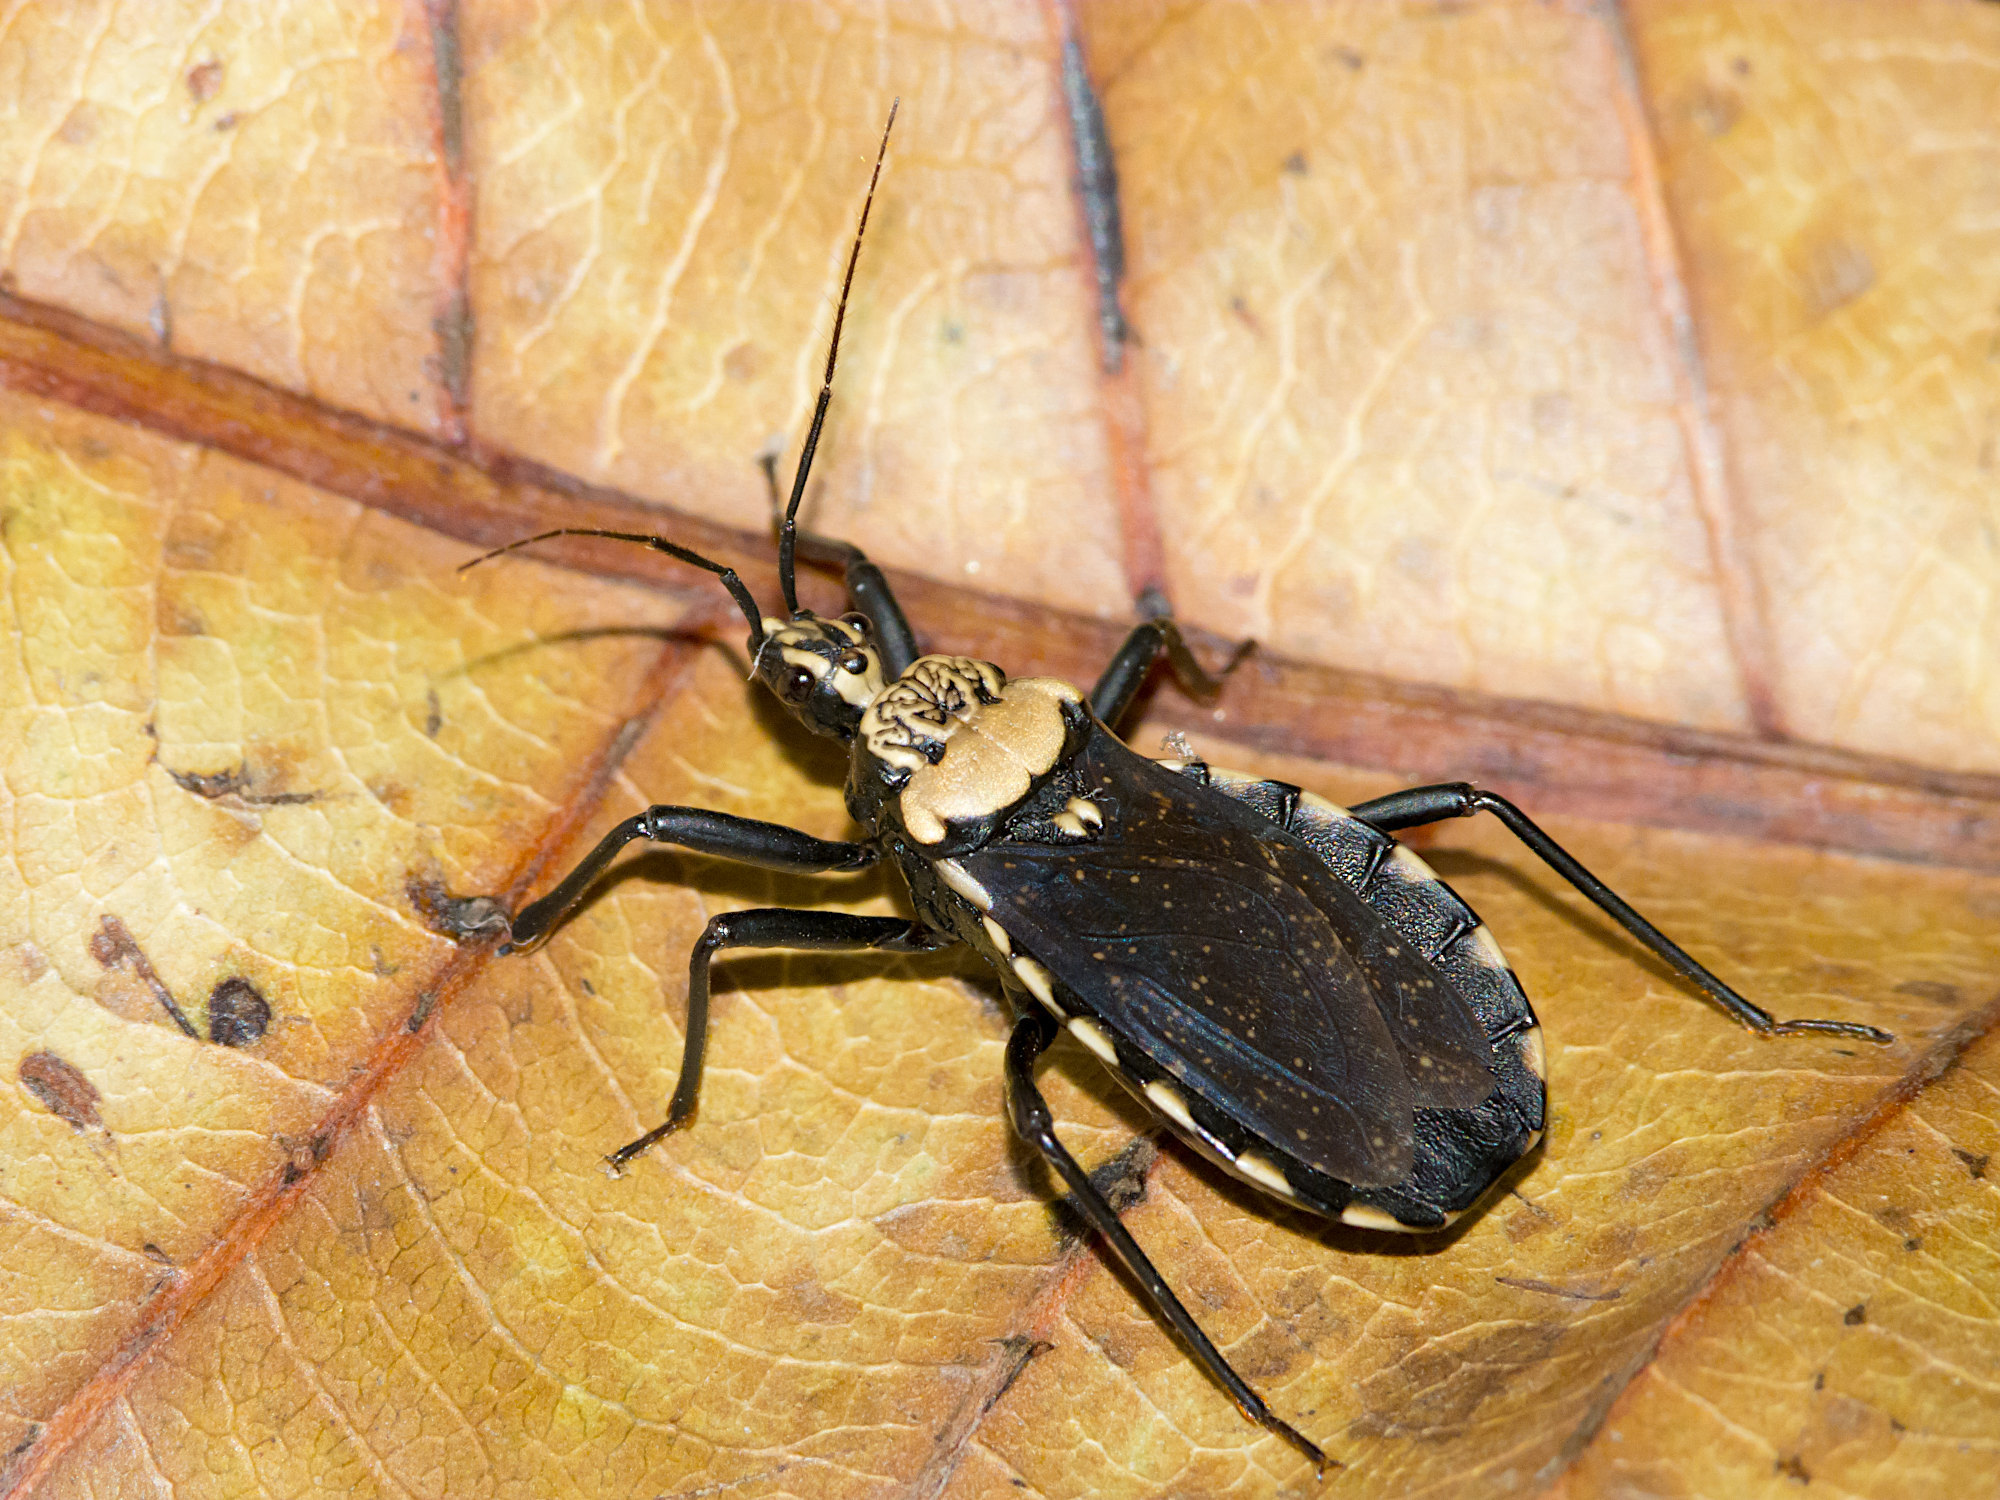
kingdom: Animalia
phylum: Arthropoda
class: Insecta
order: Hemiptera
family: Reduviidae
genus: Rhiginia
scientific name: Rhiginia conspersa
